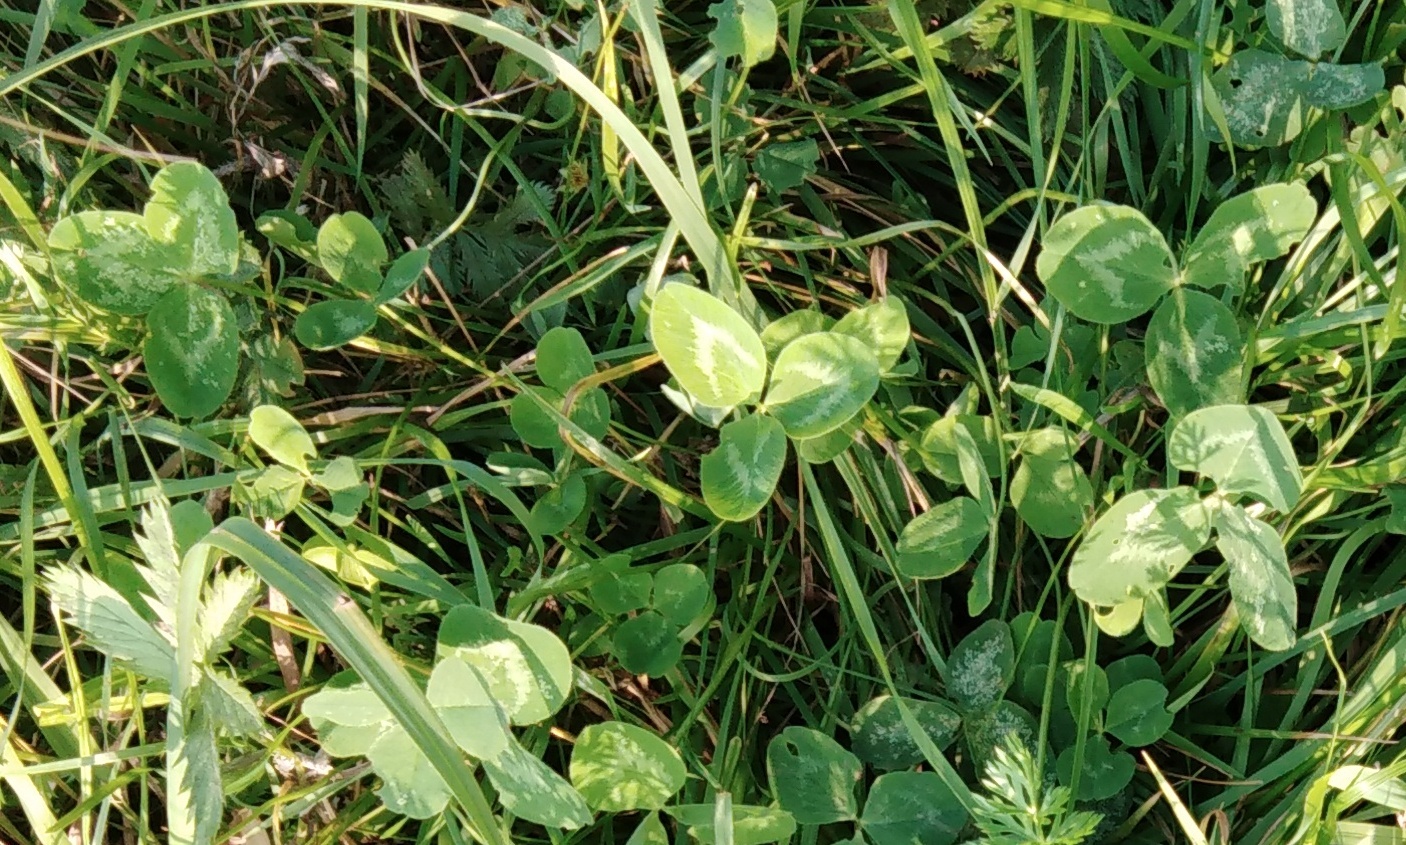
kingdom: Plantae
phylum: Tracheophyta
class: Magnoliopsida
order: Fabales
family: Fabaceae
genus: Trifolium
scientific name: Trifolium pratense
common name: Red clover
